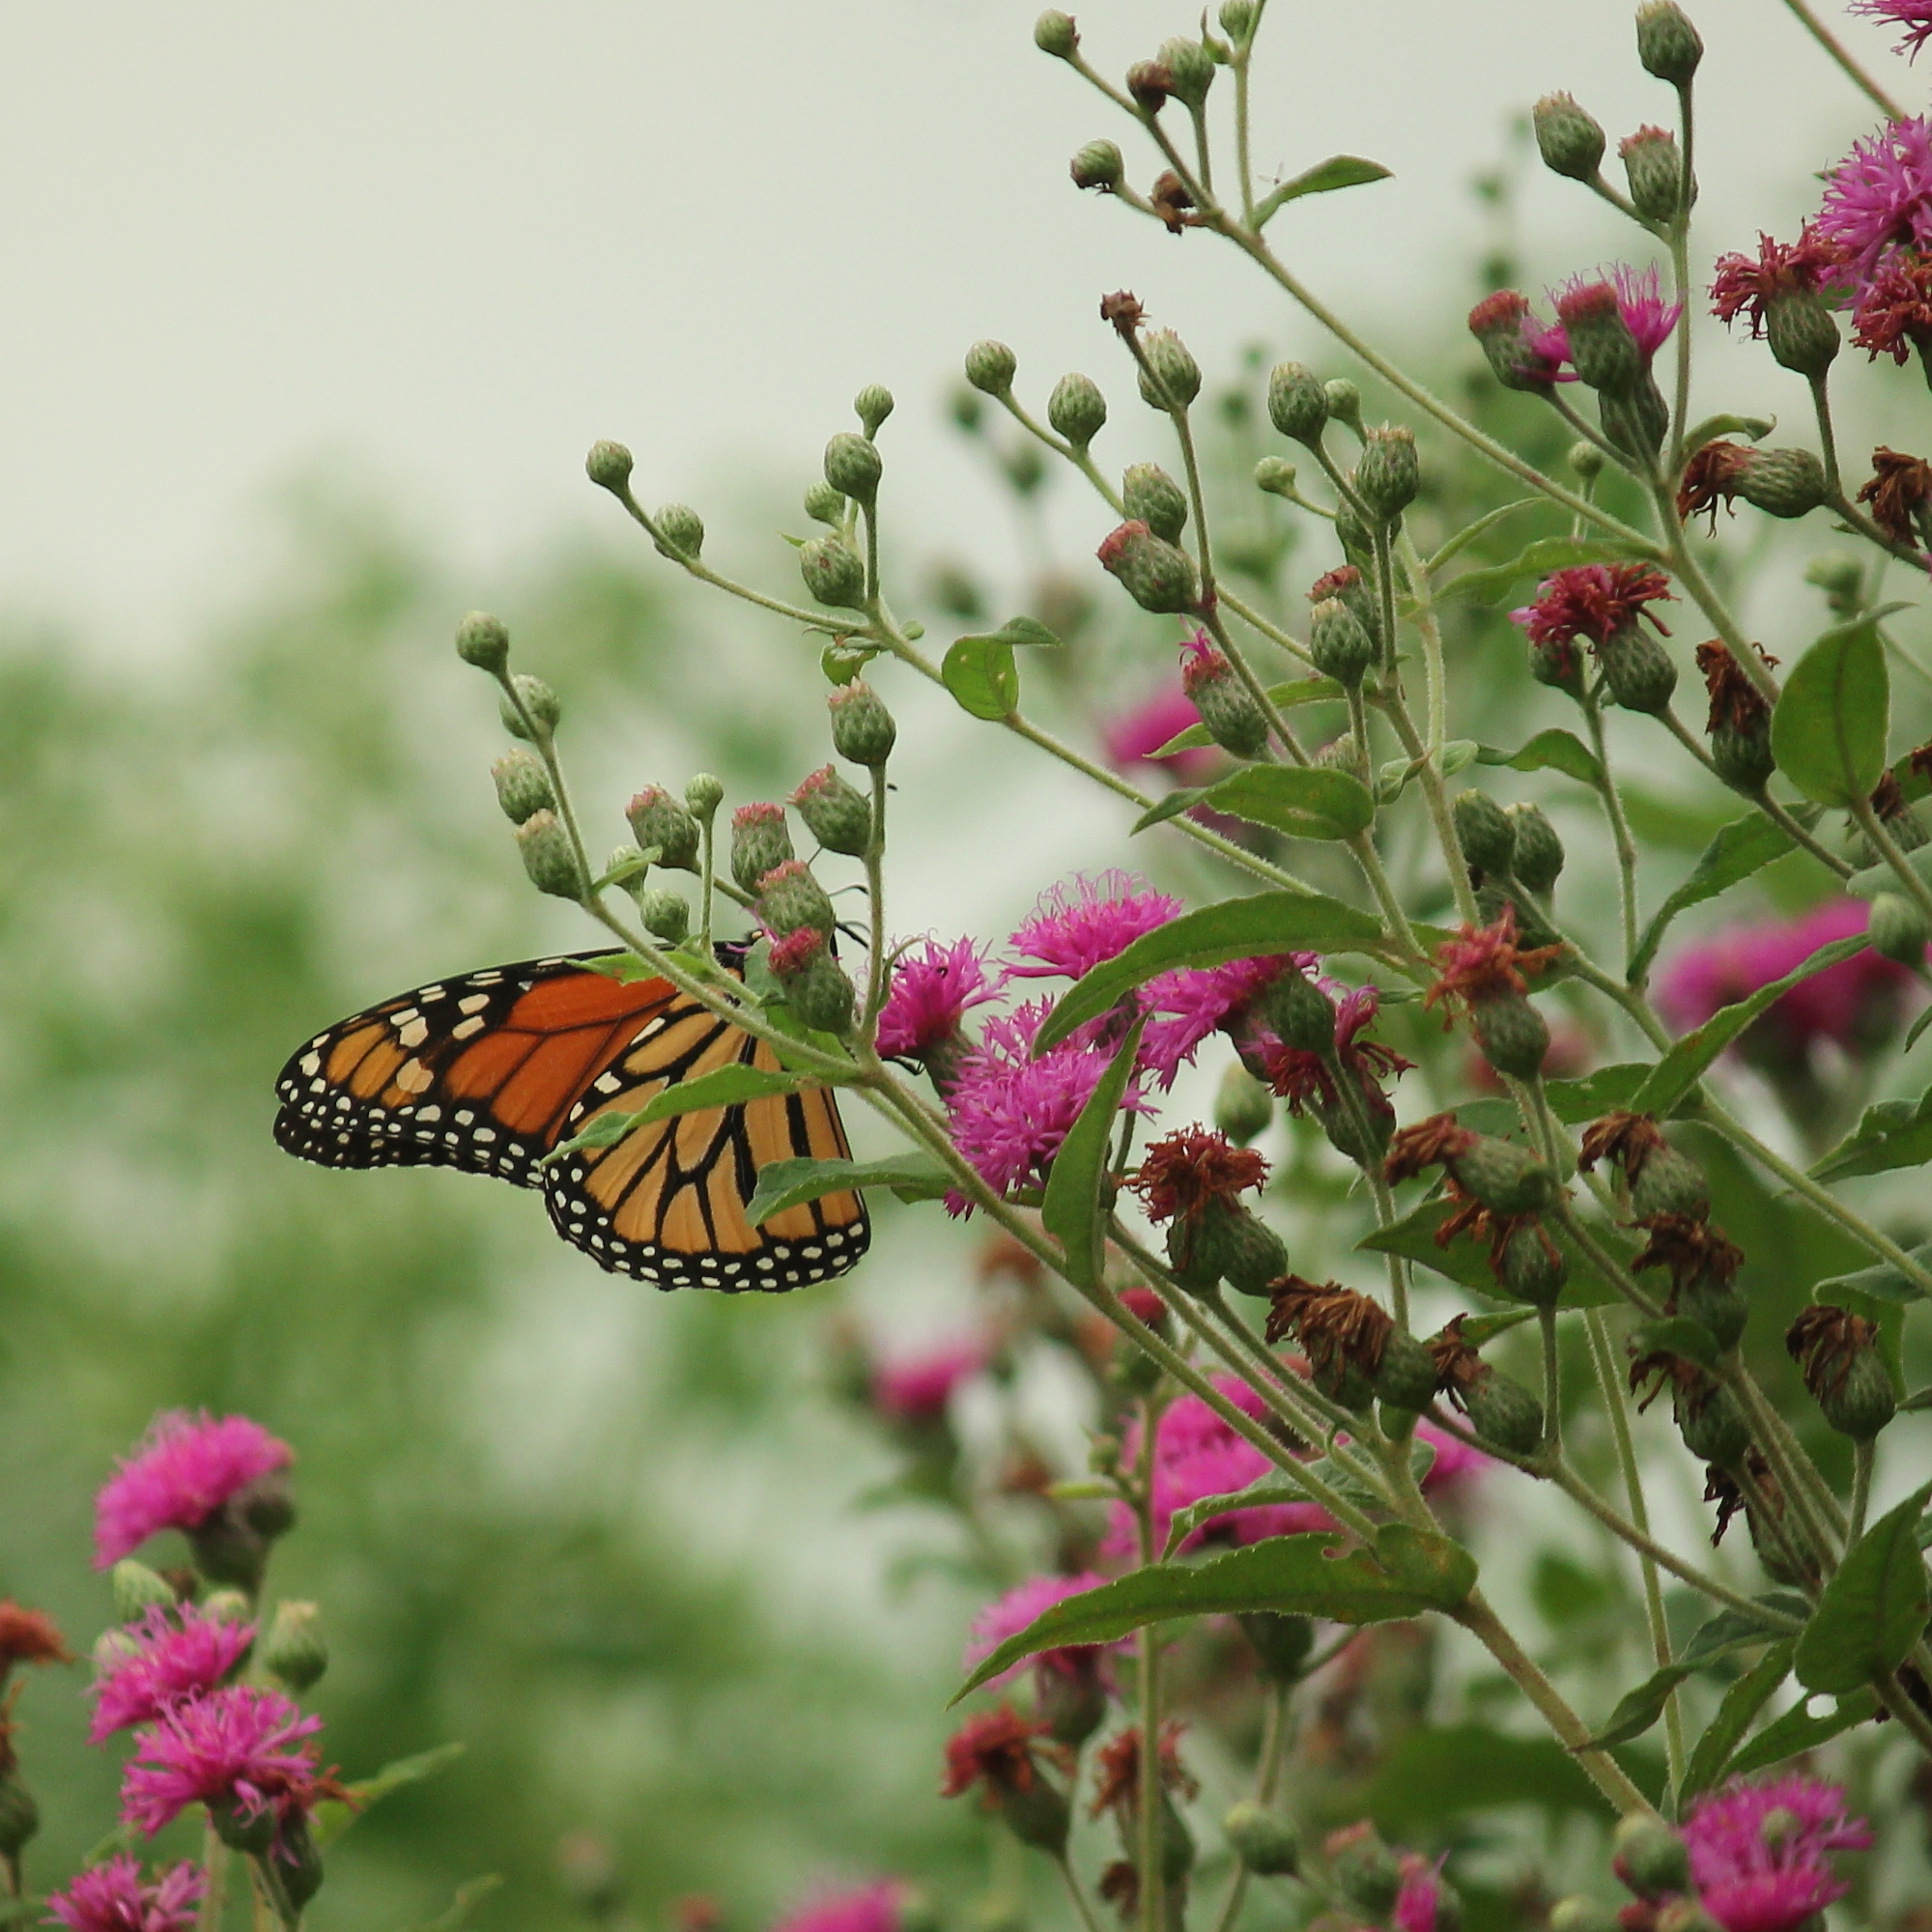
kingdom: Animalia
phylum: Arthropoda
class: Insecta
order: Lepidoptera
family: Nymphalidae
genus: Danaus
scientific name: Danaus plexippus
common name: Monarch
